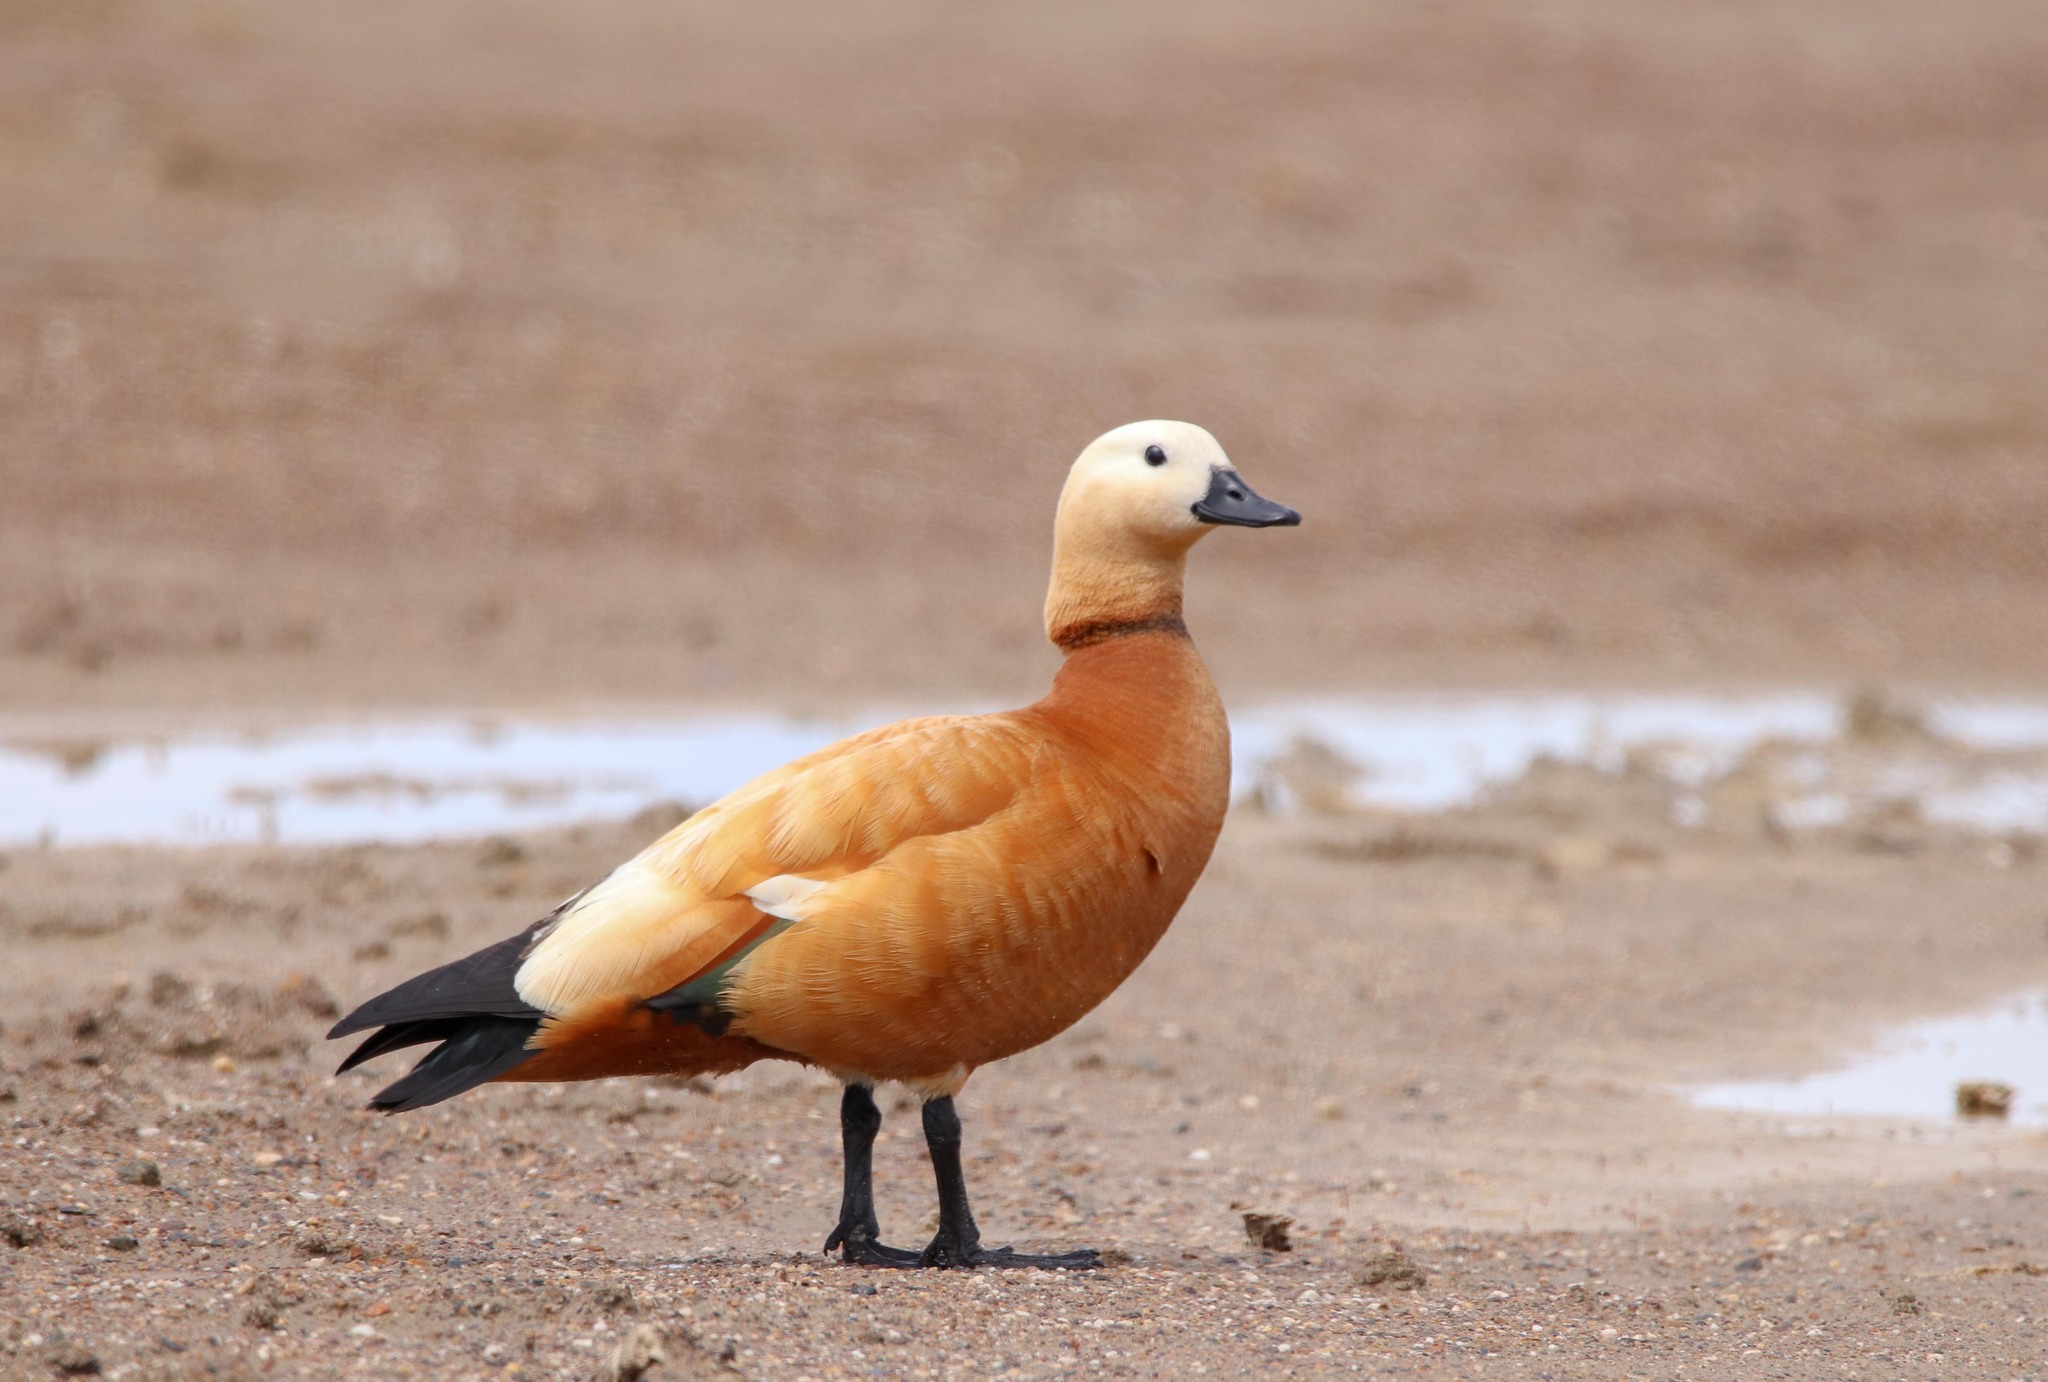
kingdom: Animalia
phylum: Chordata
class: Aves
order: Anseriformes
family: Anatidae
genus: Tadorna
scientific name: Tadorna ferruginea
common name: Ruddy shelduck
